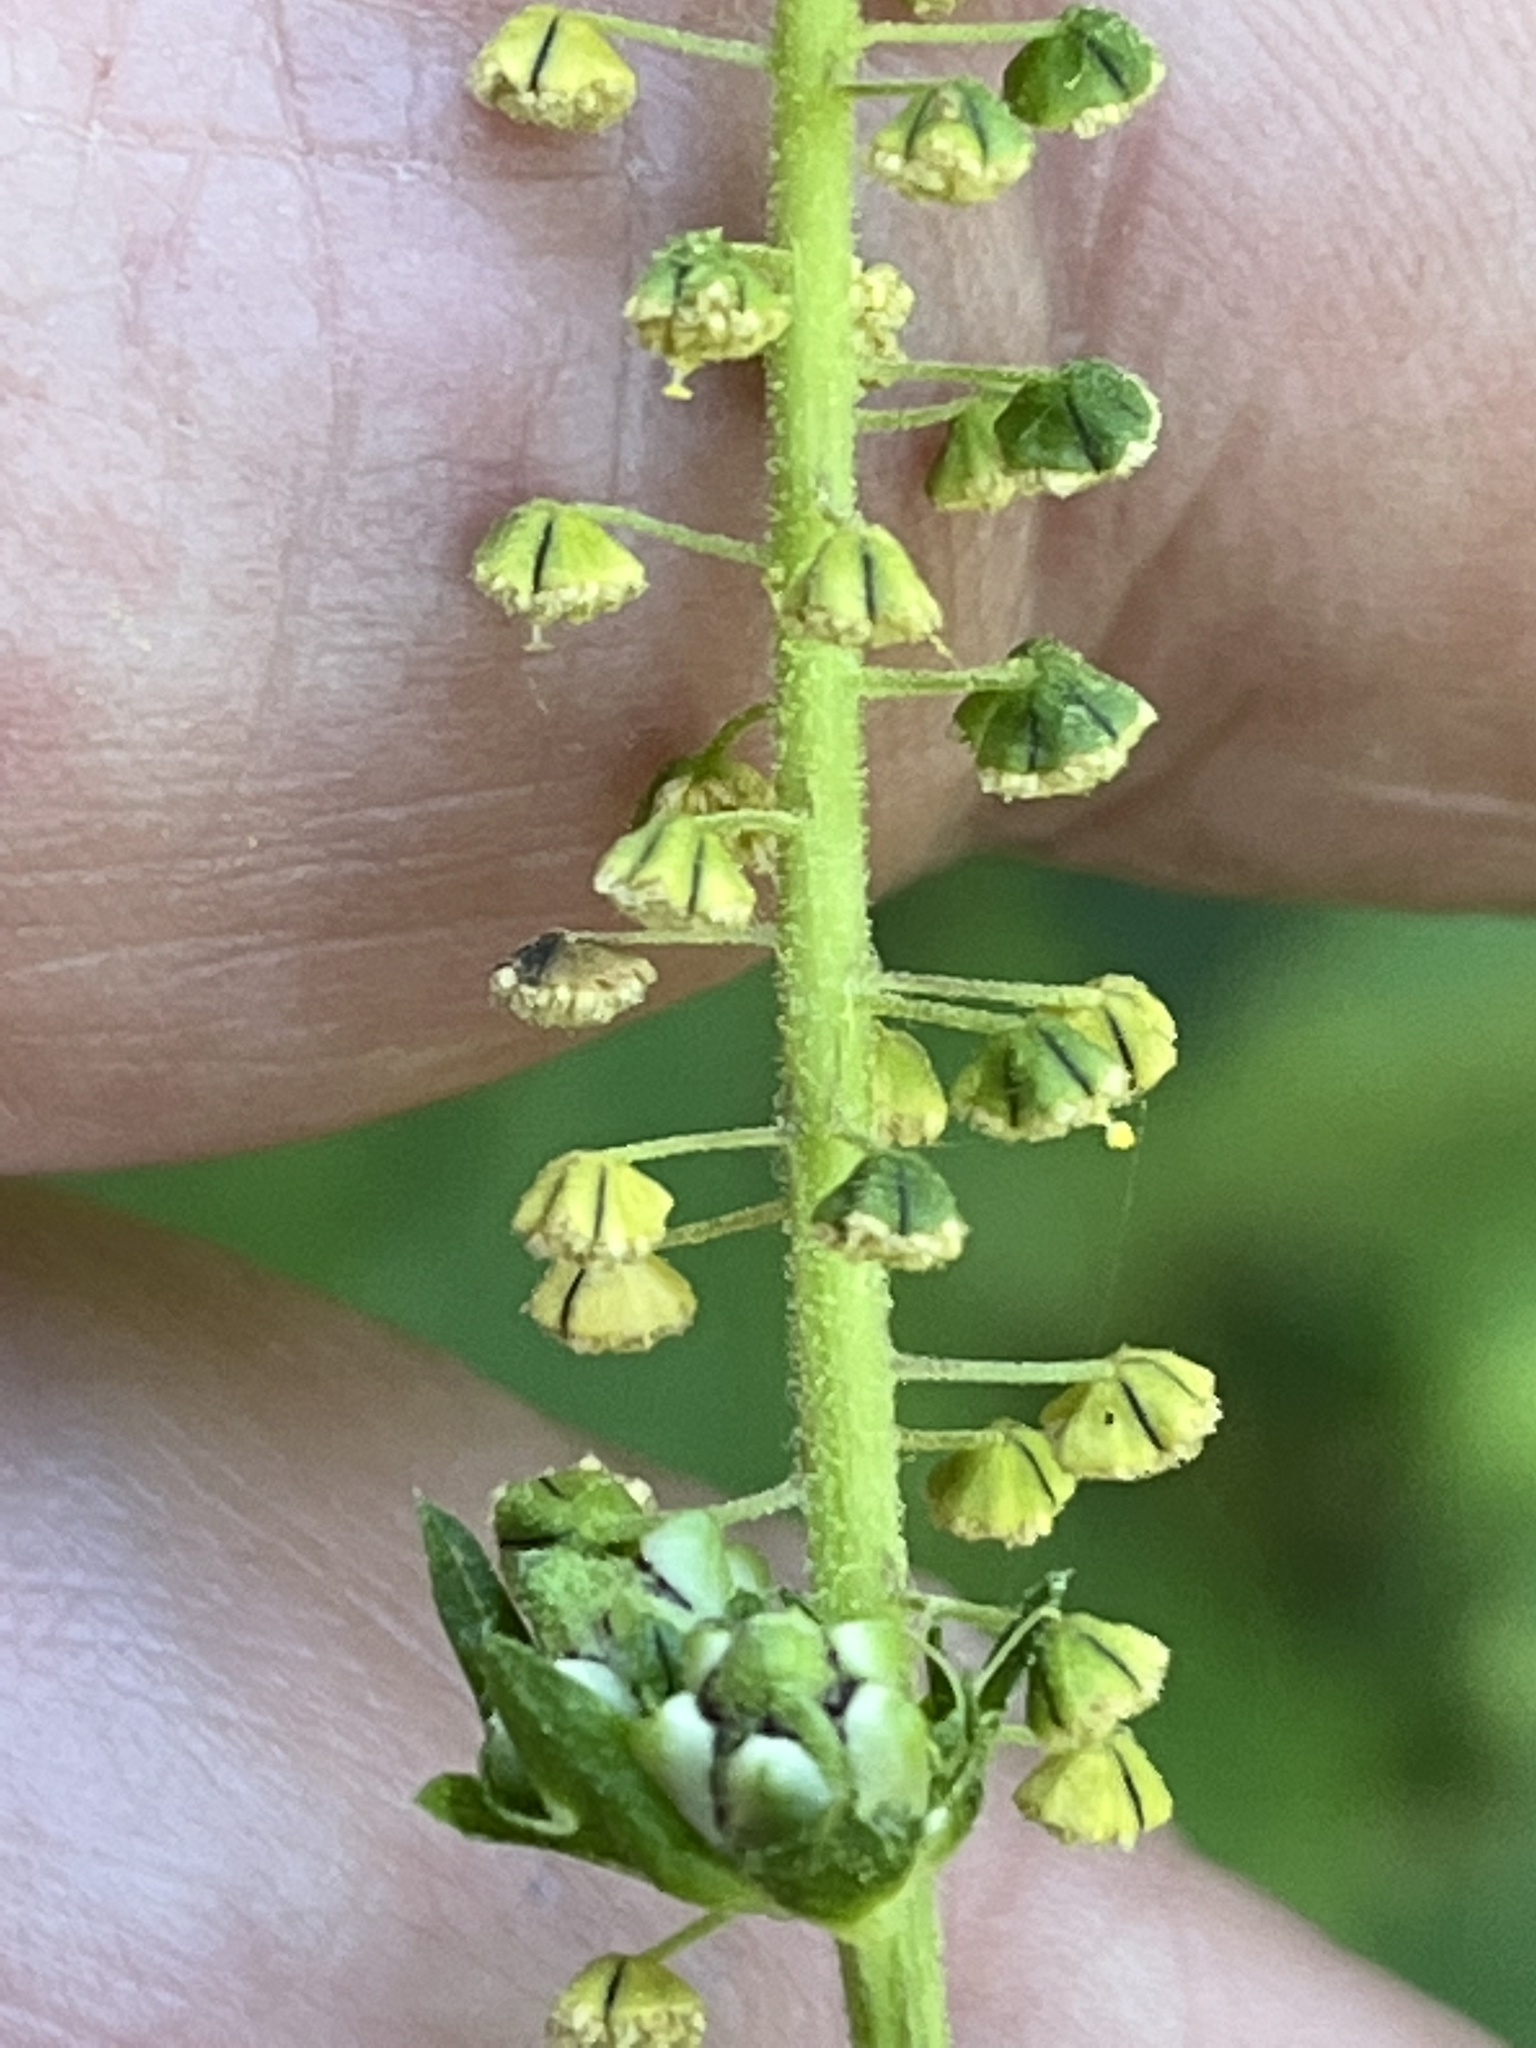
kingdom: Plantae
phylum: Tracheophyta
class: Magnoliopsida
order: Asterales
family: Asteraceae
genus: Ambrosia
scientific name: Ambrosia trifida
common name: Giant ragweed
